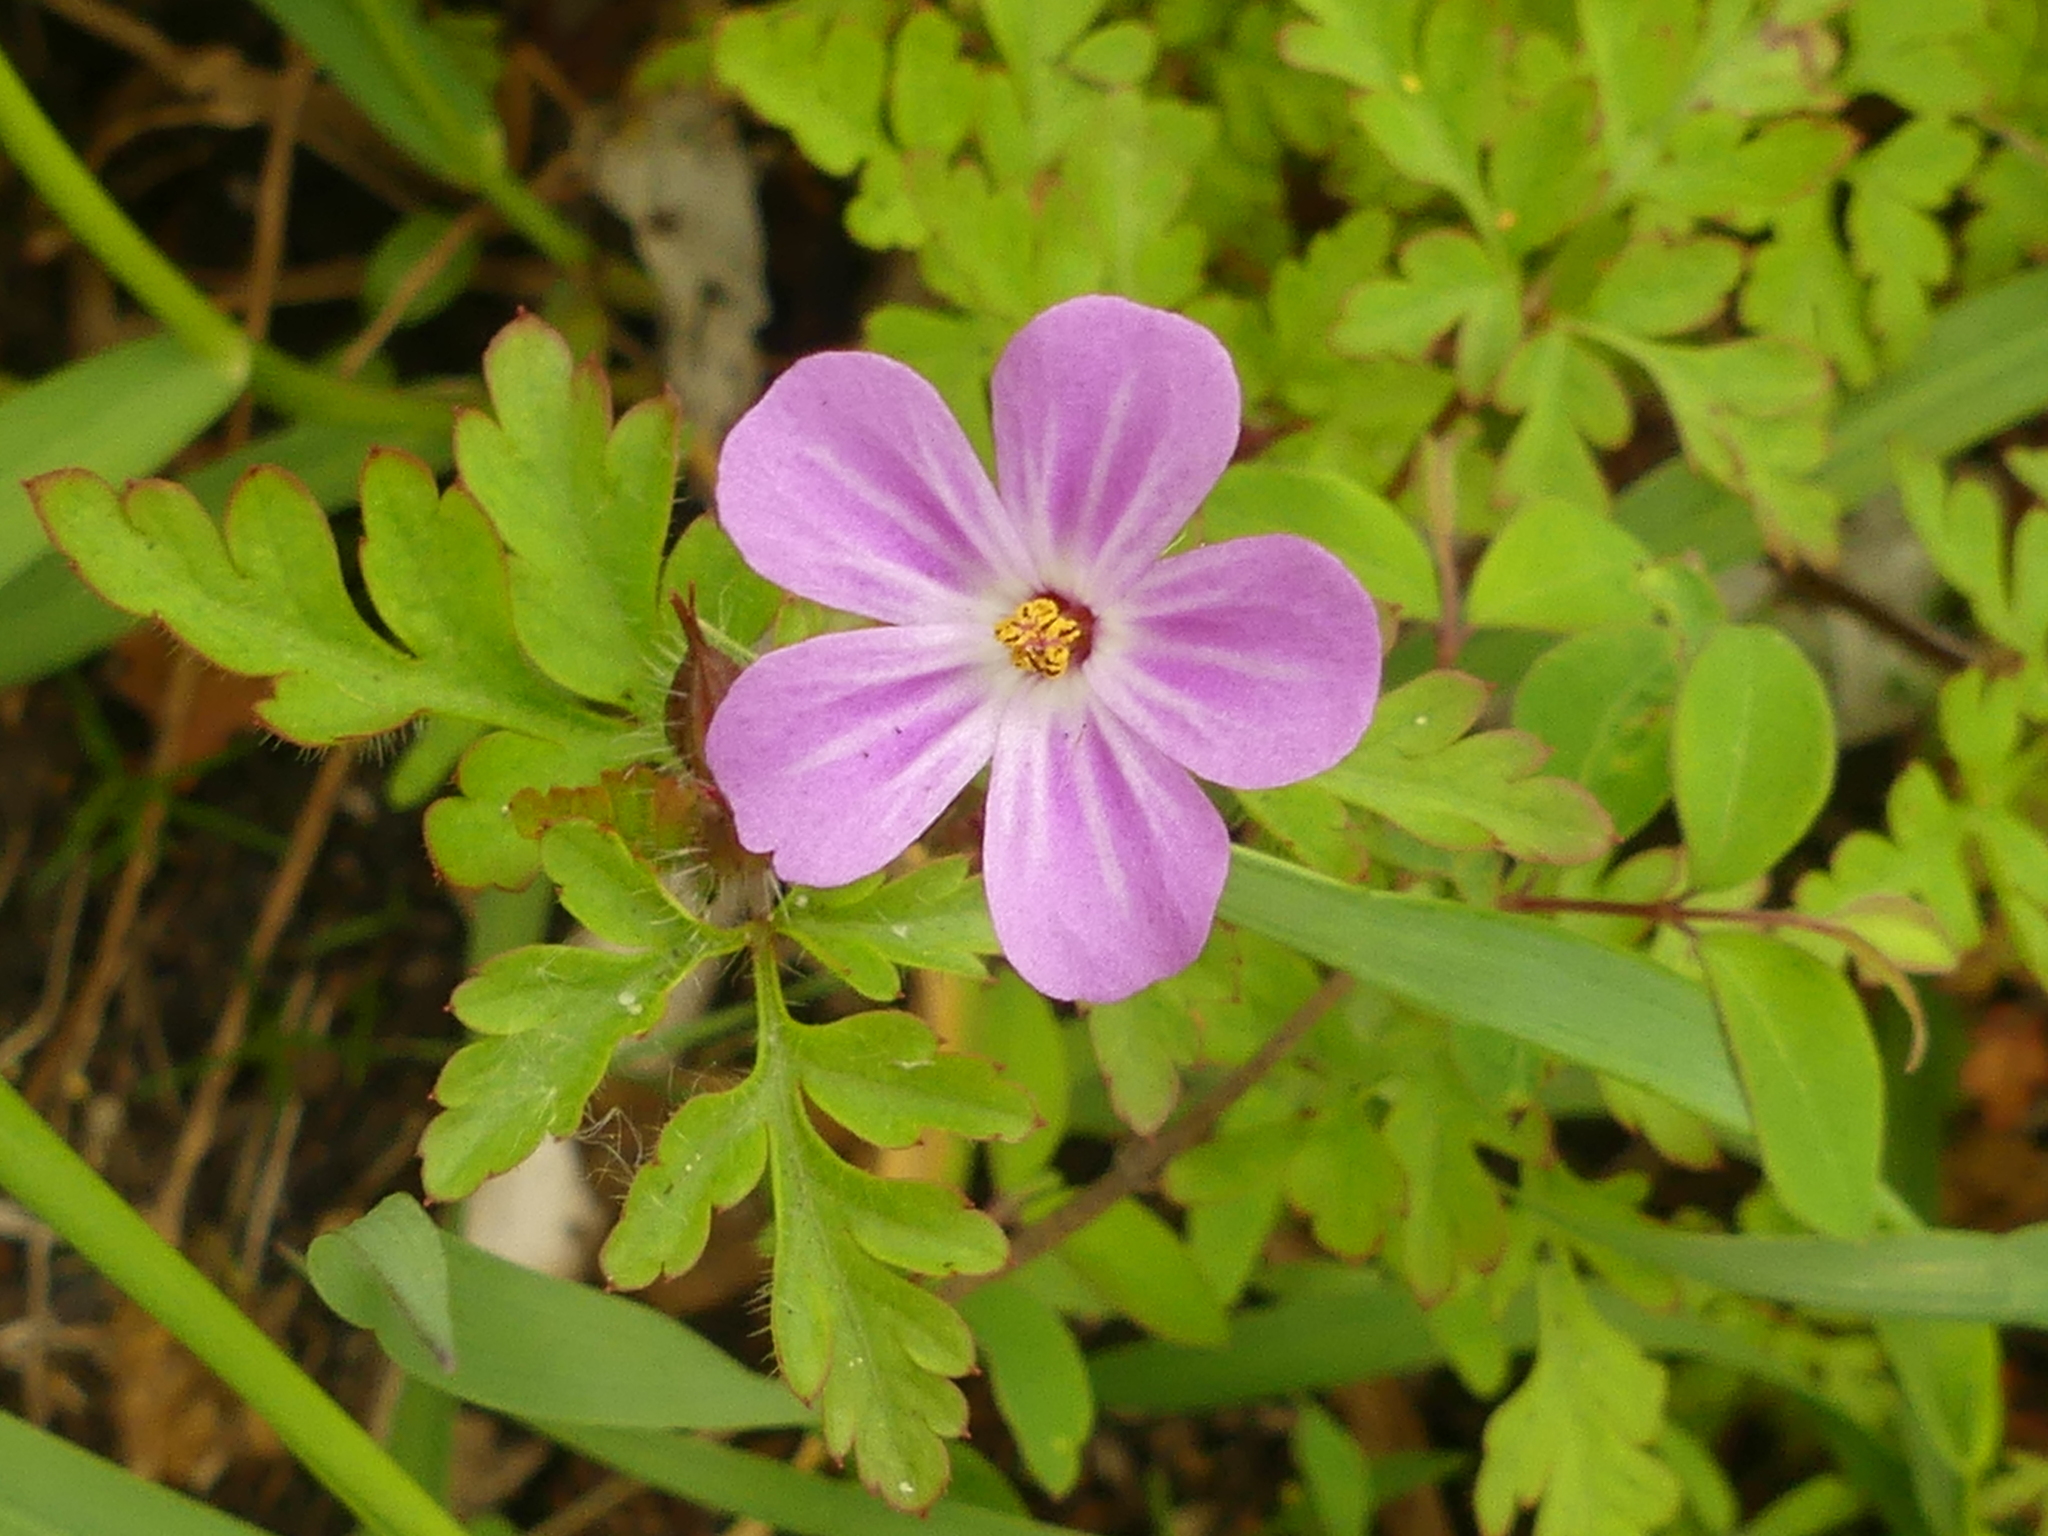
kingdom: Plantae
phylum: Tracheophyta
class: Magnoliopsida
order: Geraniales
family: Geraniaceae
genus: Geranium
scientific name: Geranium robertianum
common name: Herb-robert
